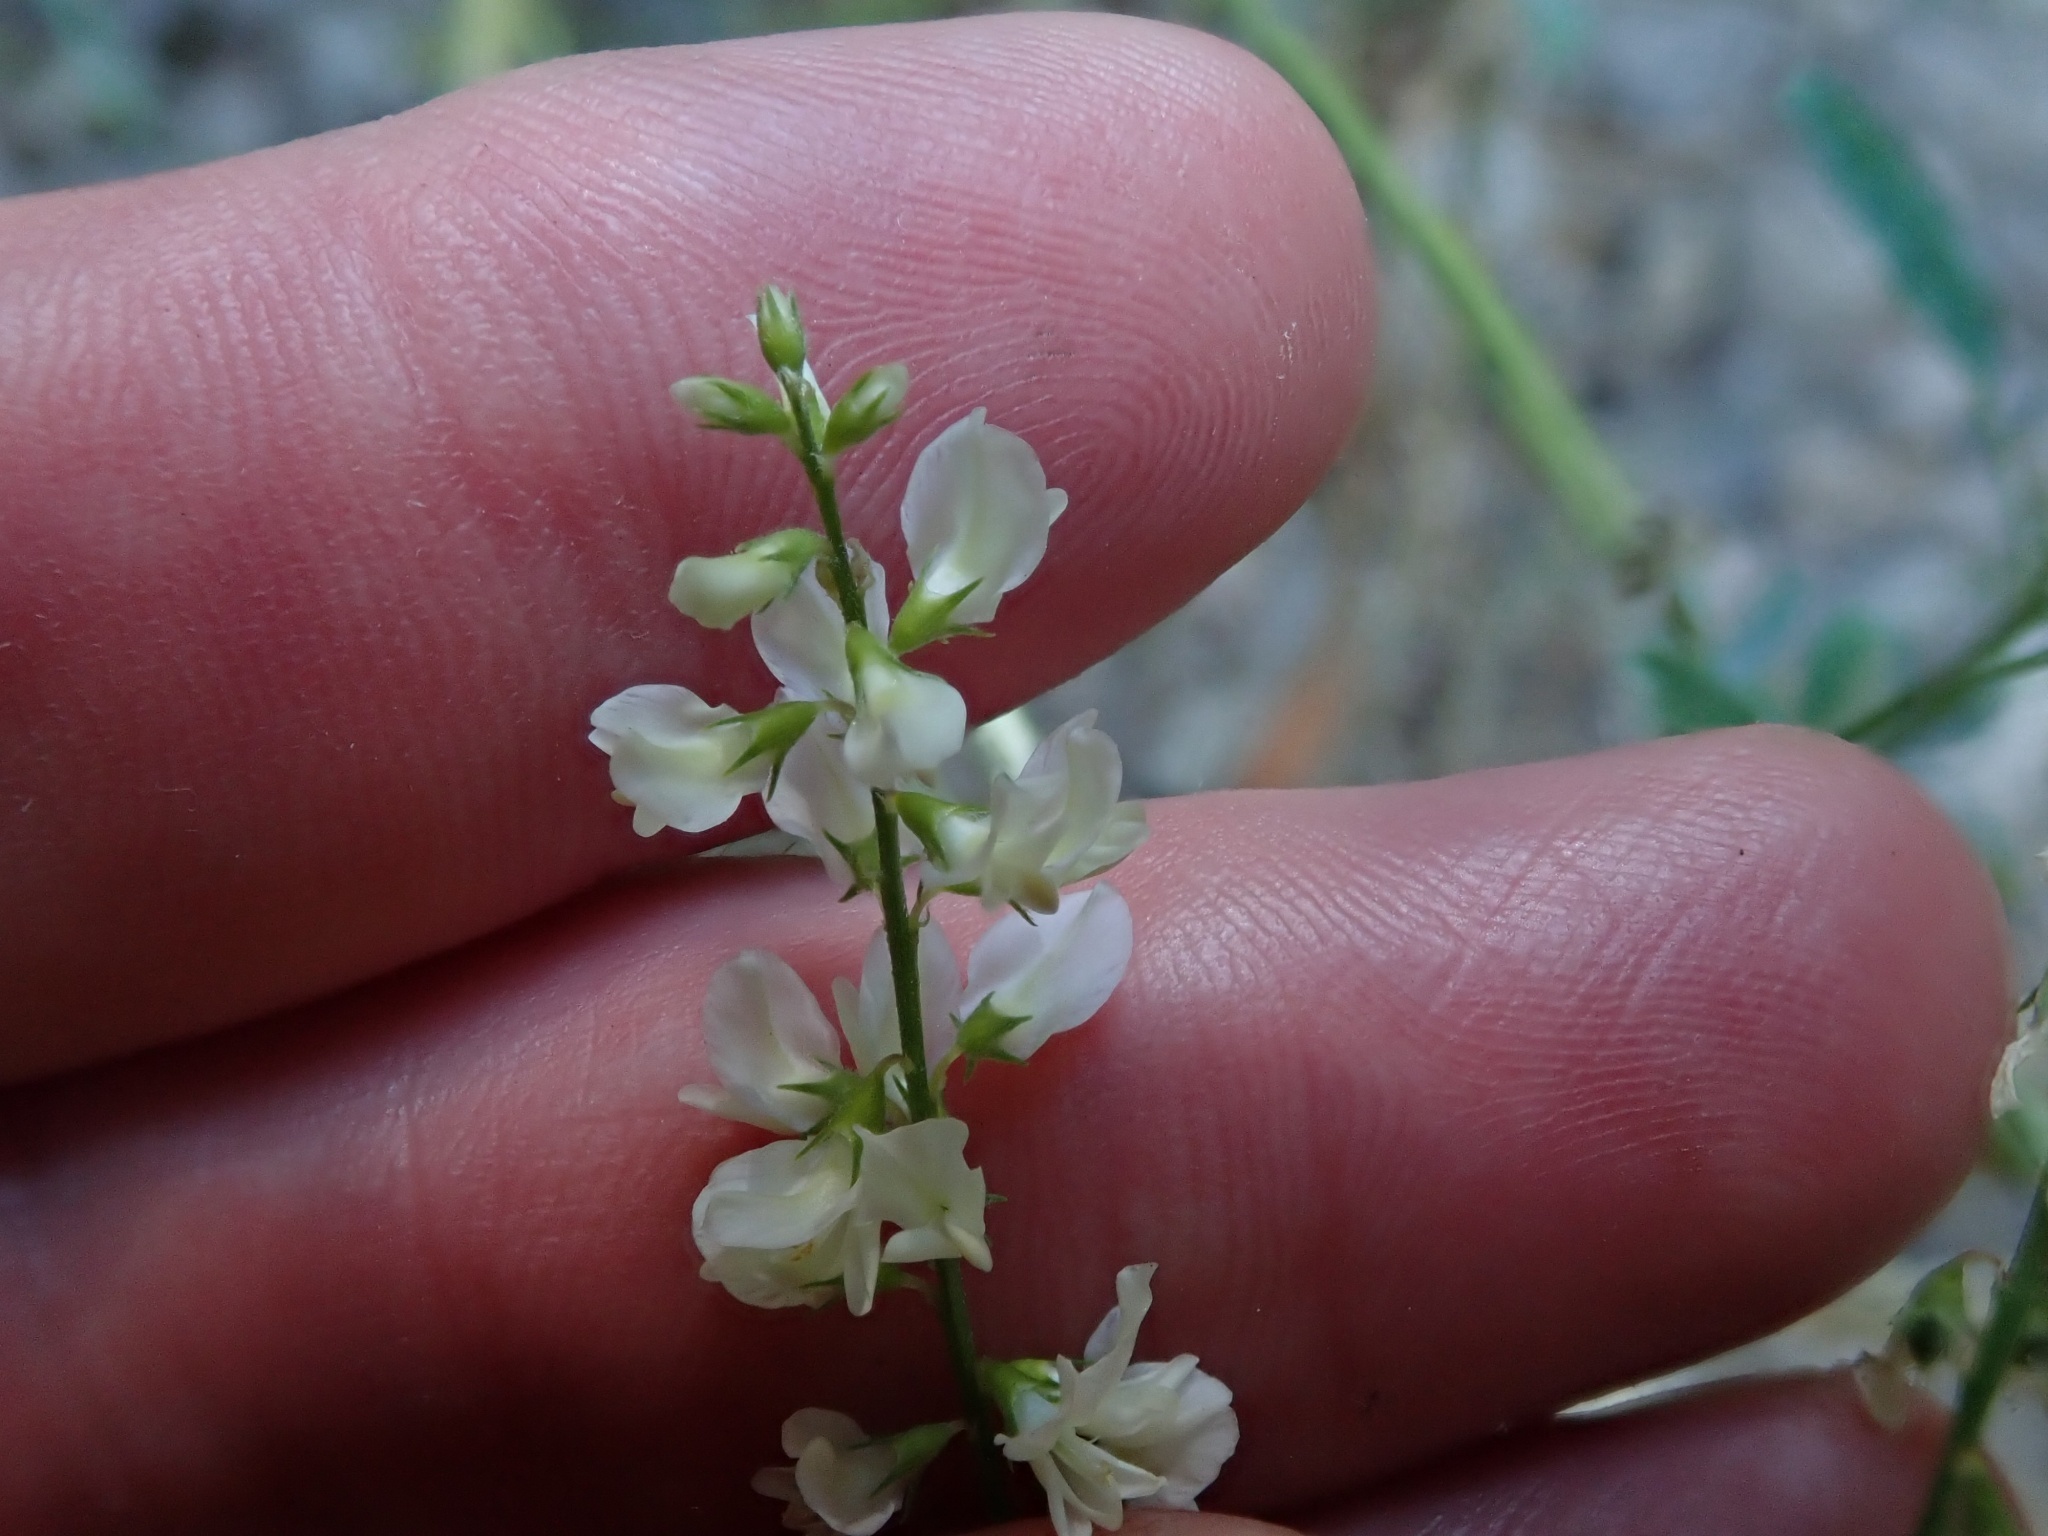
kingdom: Plantae
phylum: Tracheophyta
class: Magnoliopsida
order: Fabales
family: Fabaceae
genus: Melilotus
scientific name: Melilotus albus
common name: White melilot
